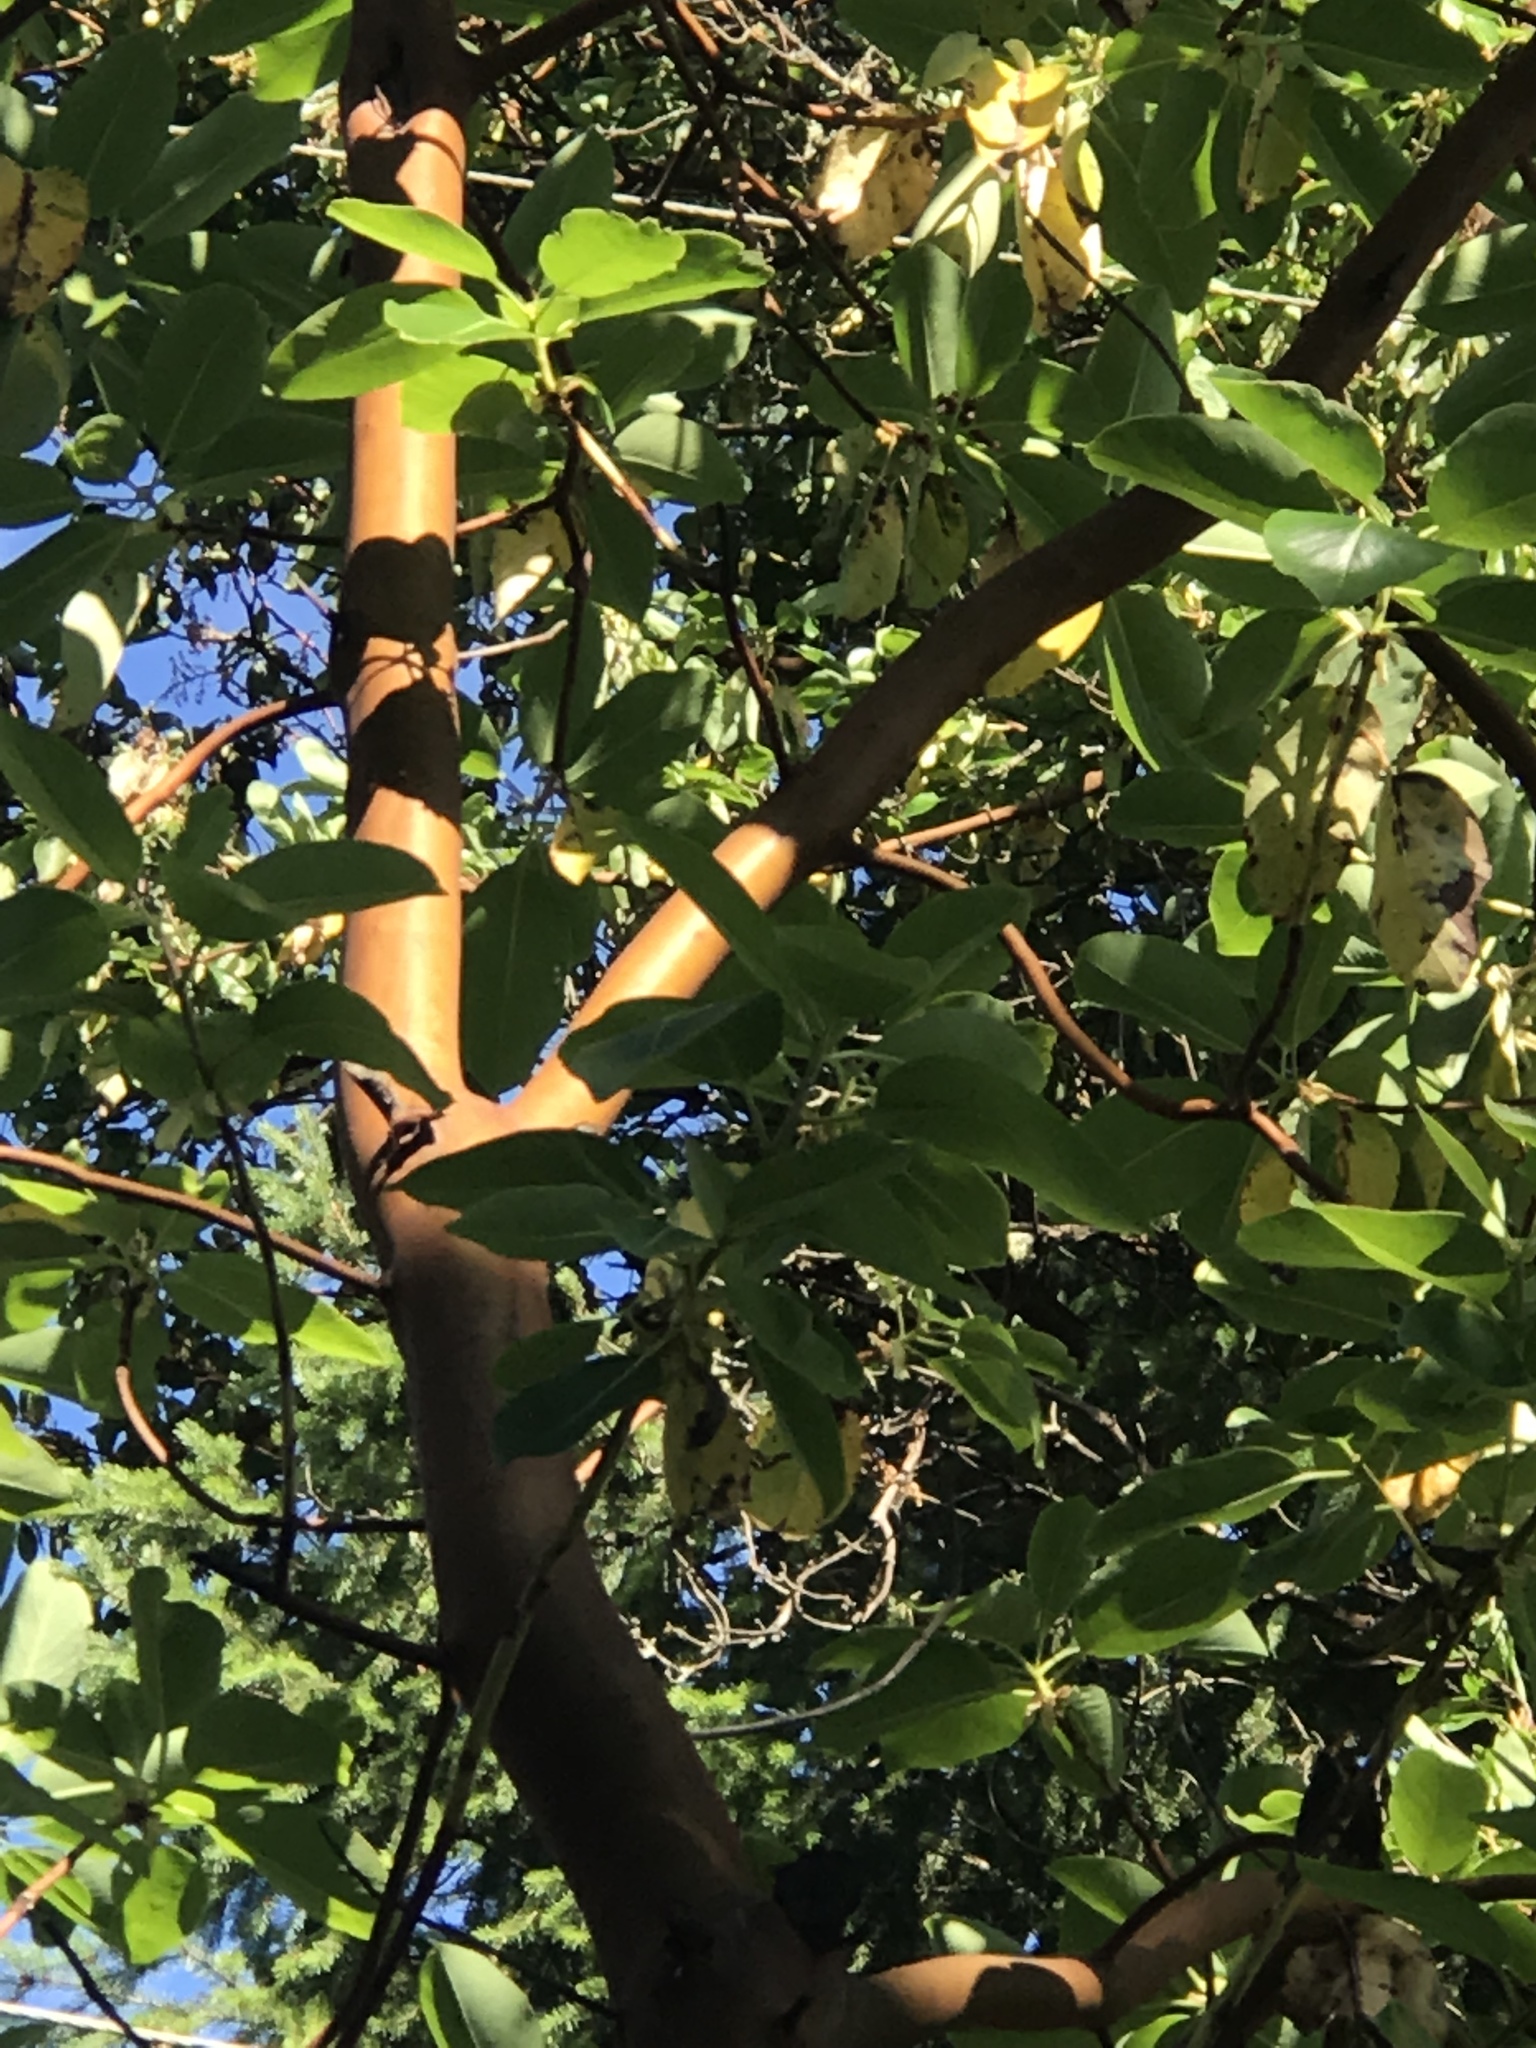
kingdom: Plantae
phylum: Tracheophyta
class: Magnoliopsida
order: Ericales
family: Ericaceae
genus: Arbutus
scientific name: Arbutus menziesii
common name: Pacific madrone
